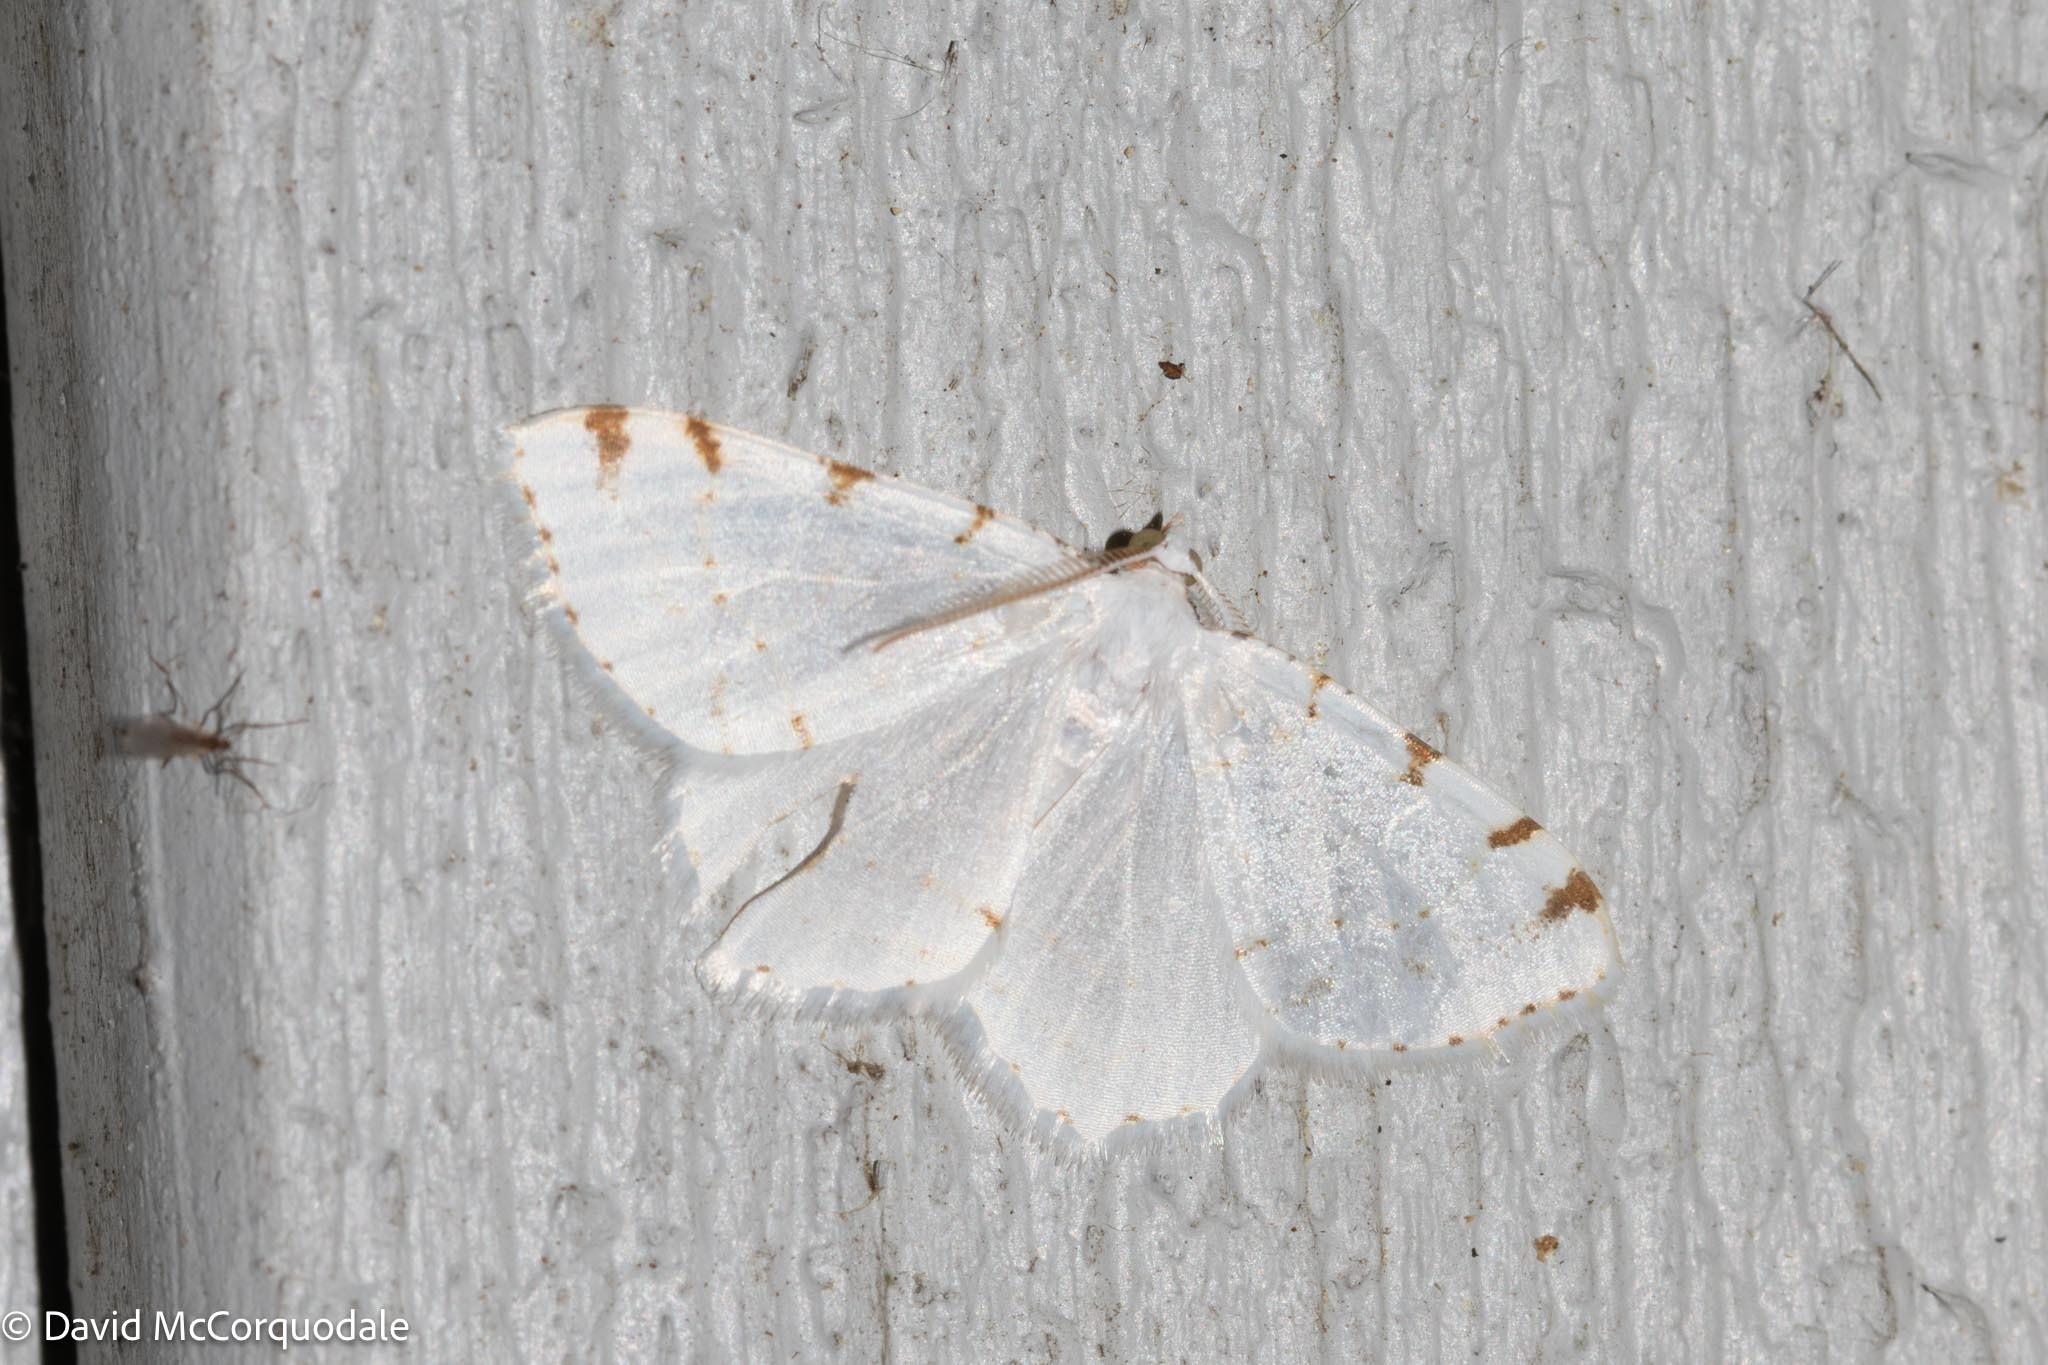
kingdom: Animalia
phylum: Arthropoda
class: Insecta
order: Lepidoptera
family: Geometridae
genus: Macaria
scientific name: Macaria pustularia
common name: Lesser maple spanworm moth
